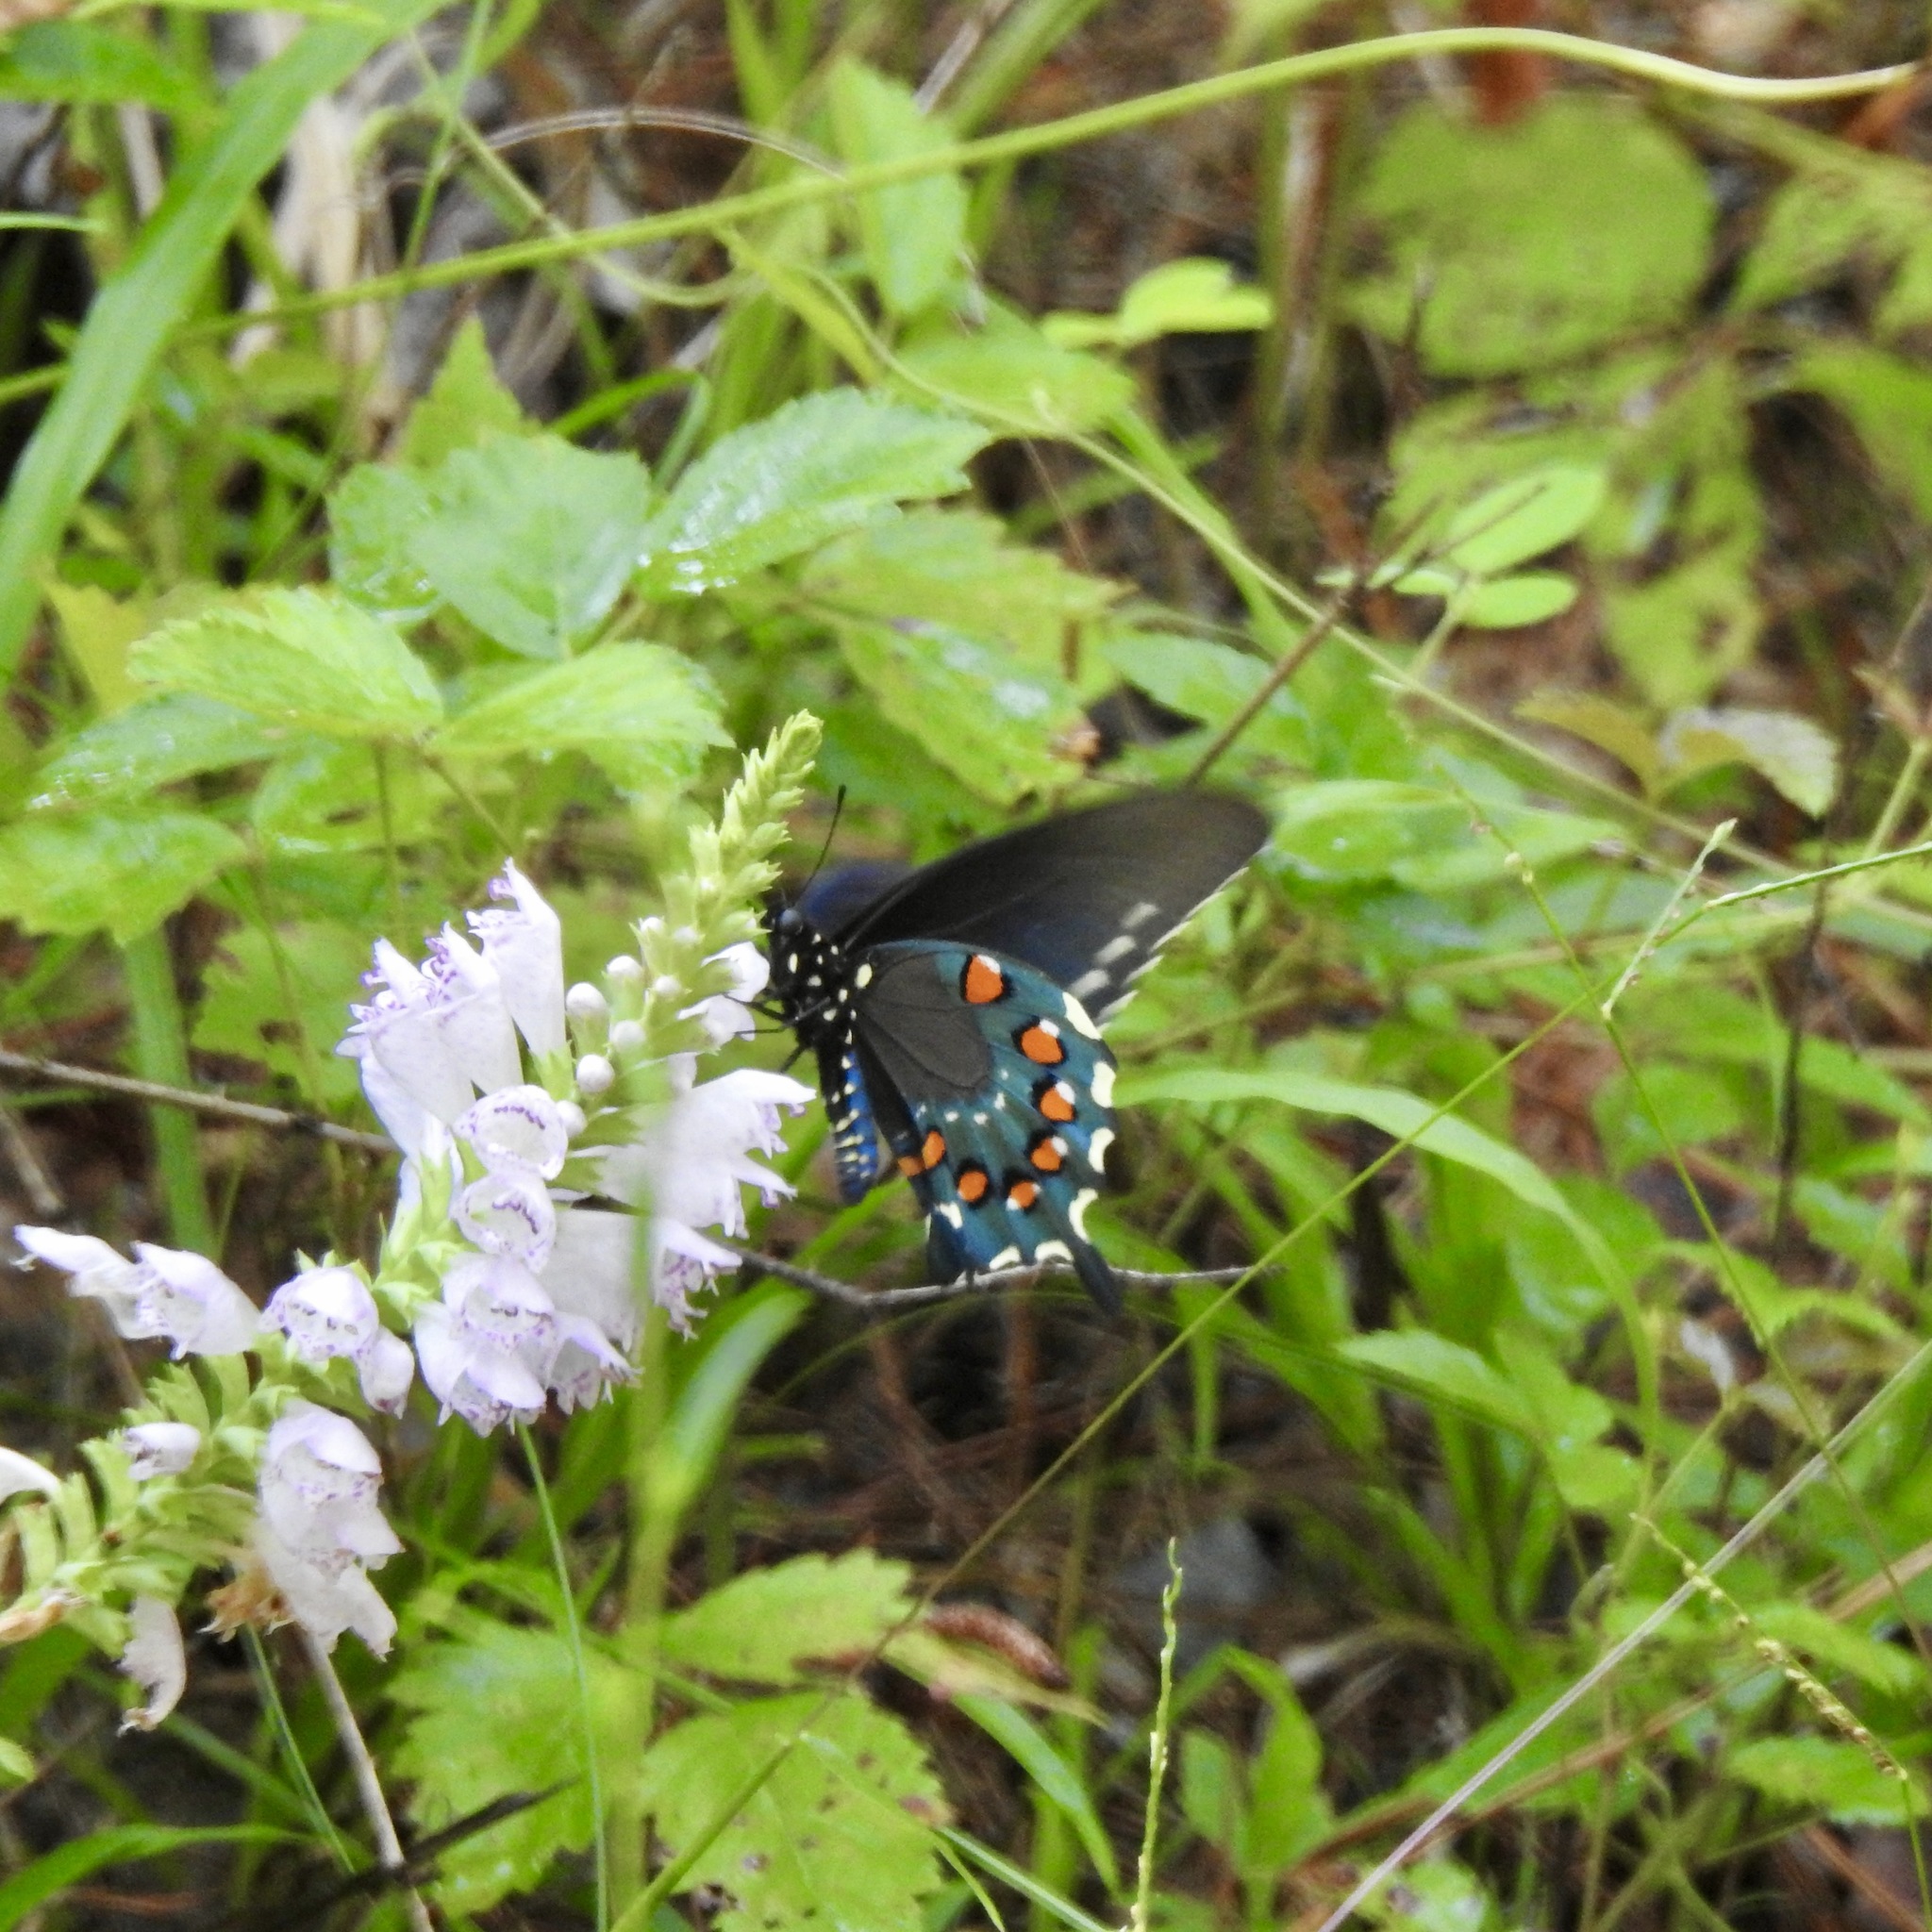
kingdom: Animalia
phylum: Arthropoda
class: Insecta
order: Lepidoptera
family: Papilionidae
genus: Battus
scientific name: Battus philenor
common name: Pipevine swallowtail
